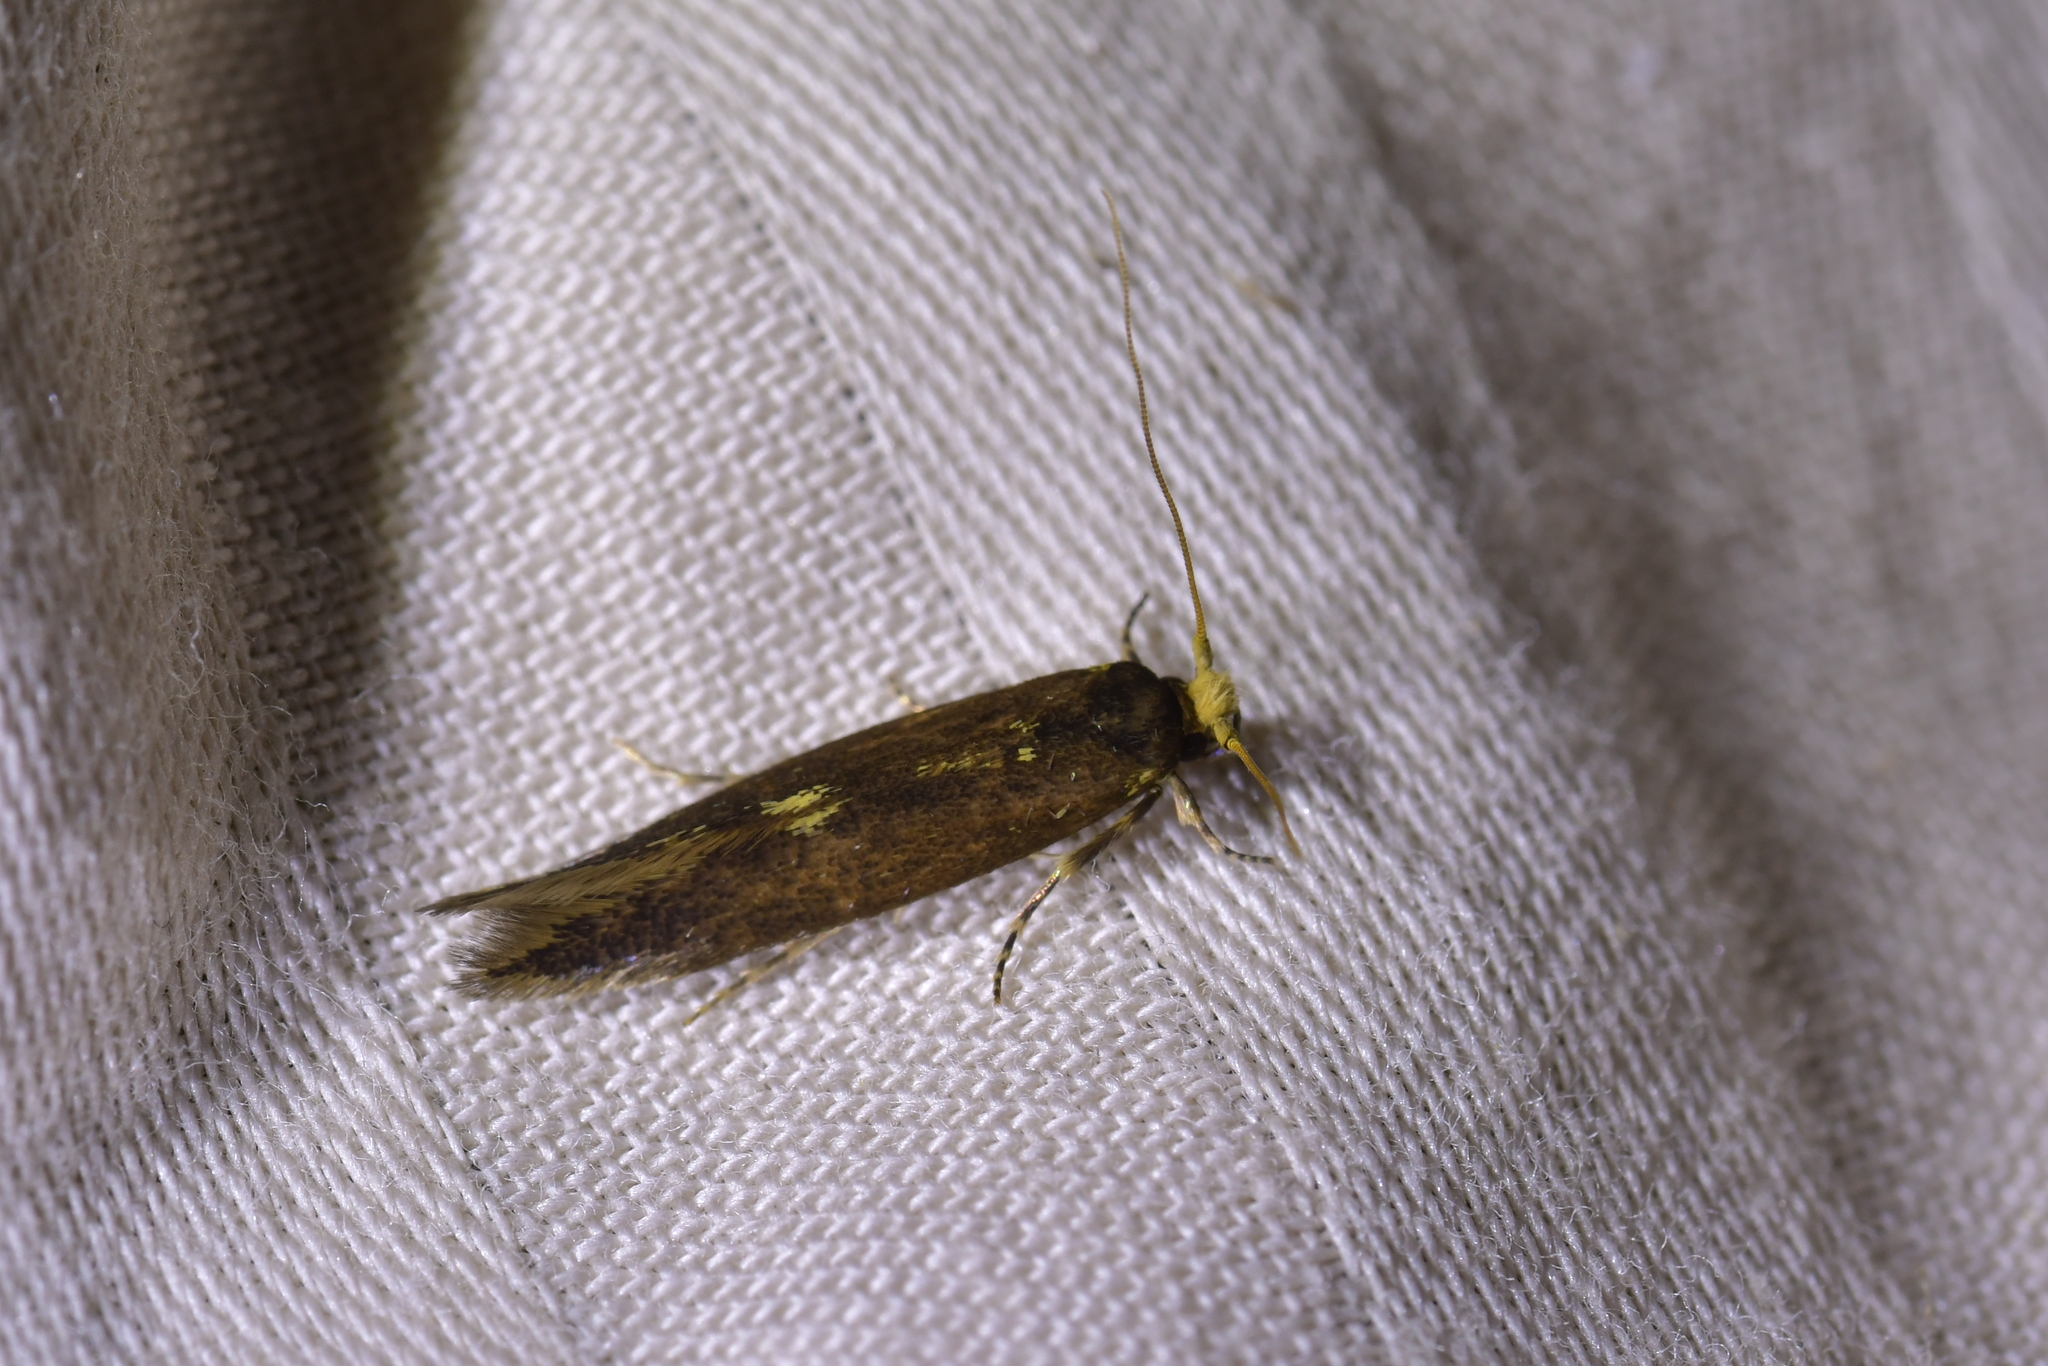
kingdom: Animalia
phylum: Arthropoda
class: Insecta
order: Lepidoptera
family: Tineidae
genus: Opogona
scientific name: Opogona omoscopa
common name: Moth
